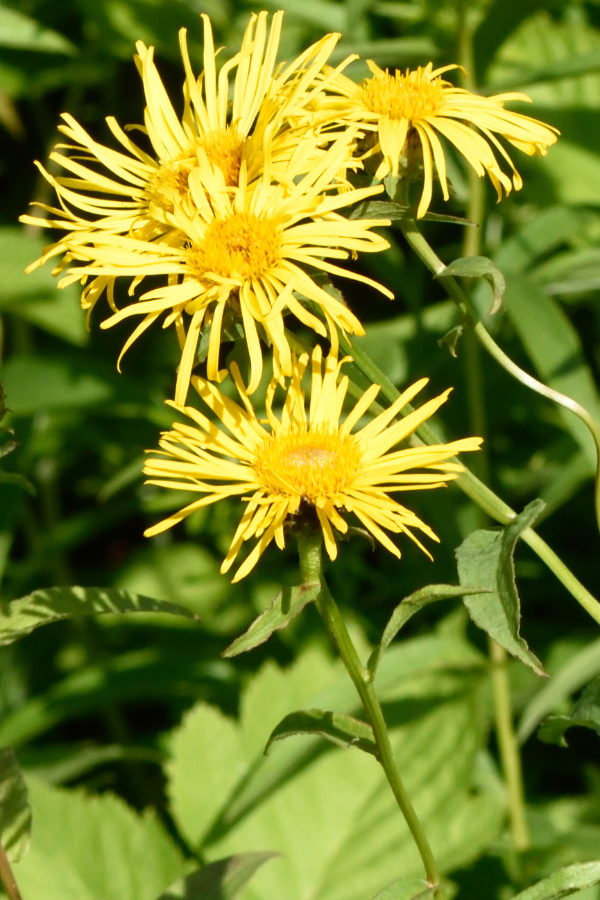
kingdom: Plantae
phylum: Tracheophyta
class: Magnoliopsida
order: Asterales
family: Asteraceae
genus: Pentanema
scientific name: Pentanema salicinum
